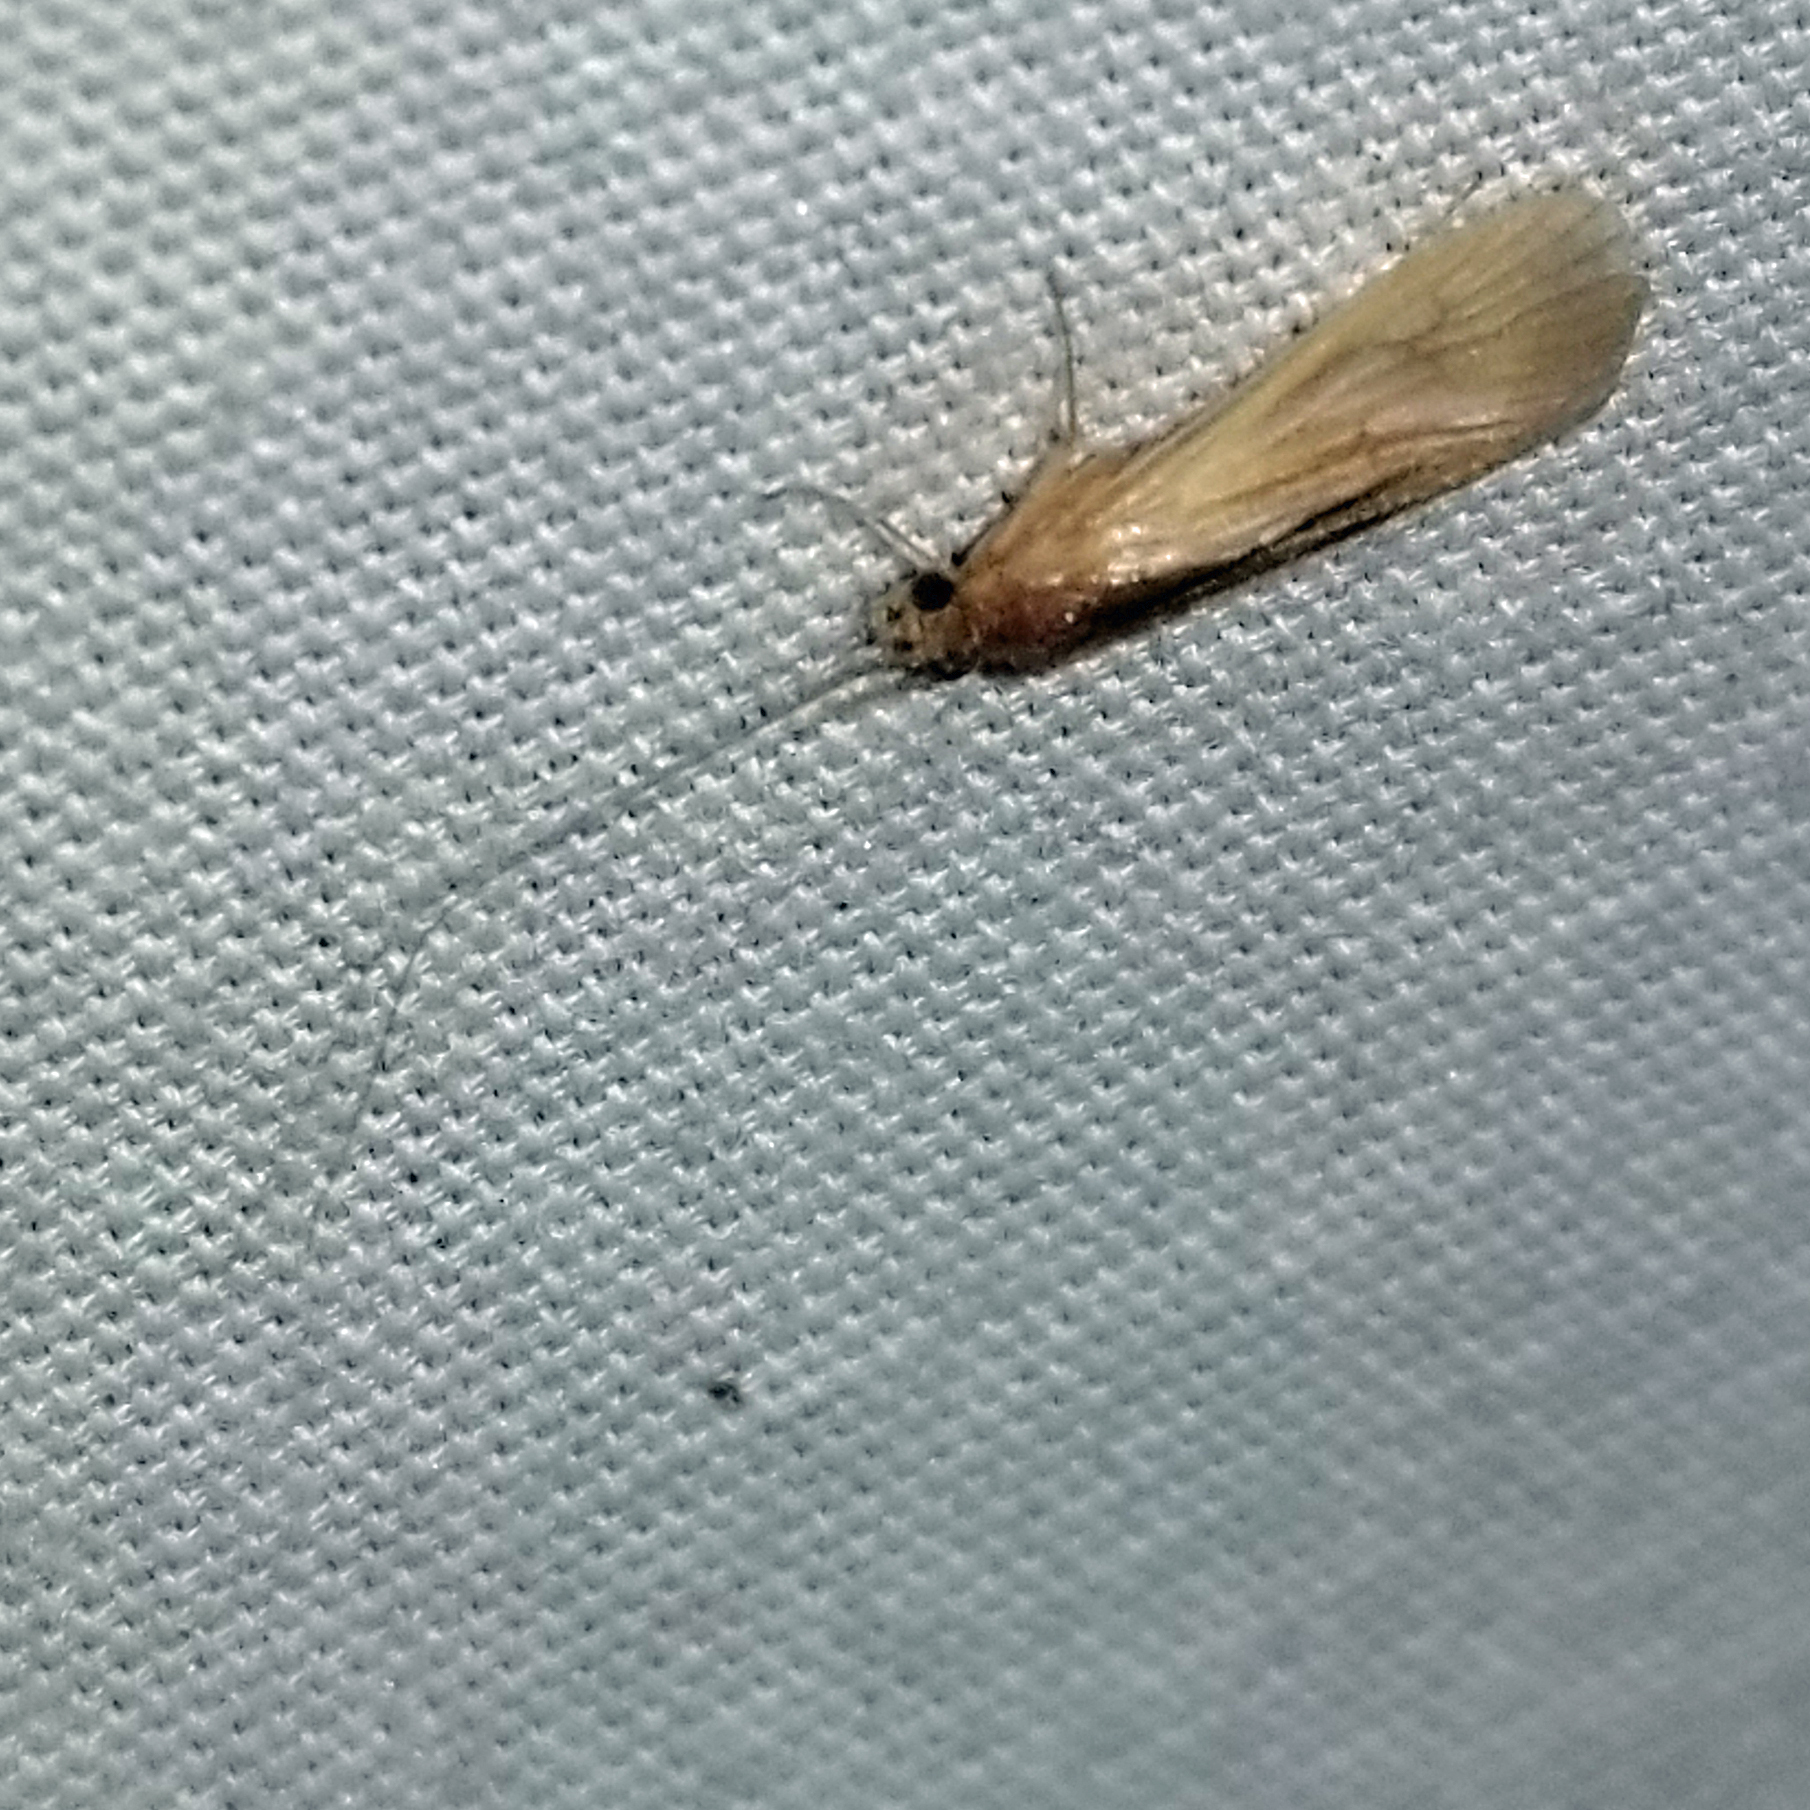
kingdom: Animalia
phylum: Arthropoda
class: Insecta
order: Trichoptera
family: Hydropsychidae
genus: Potamyia
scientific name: Potamyia flava
